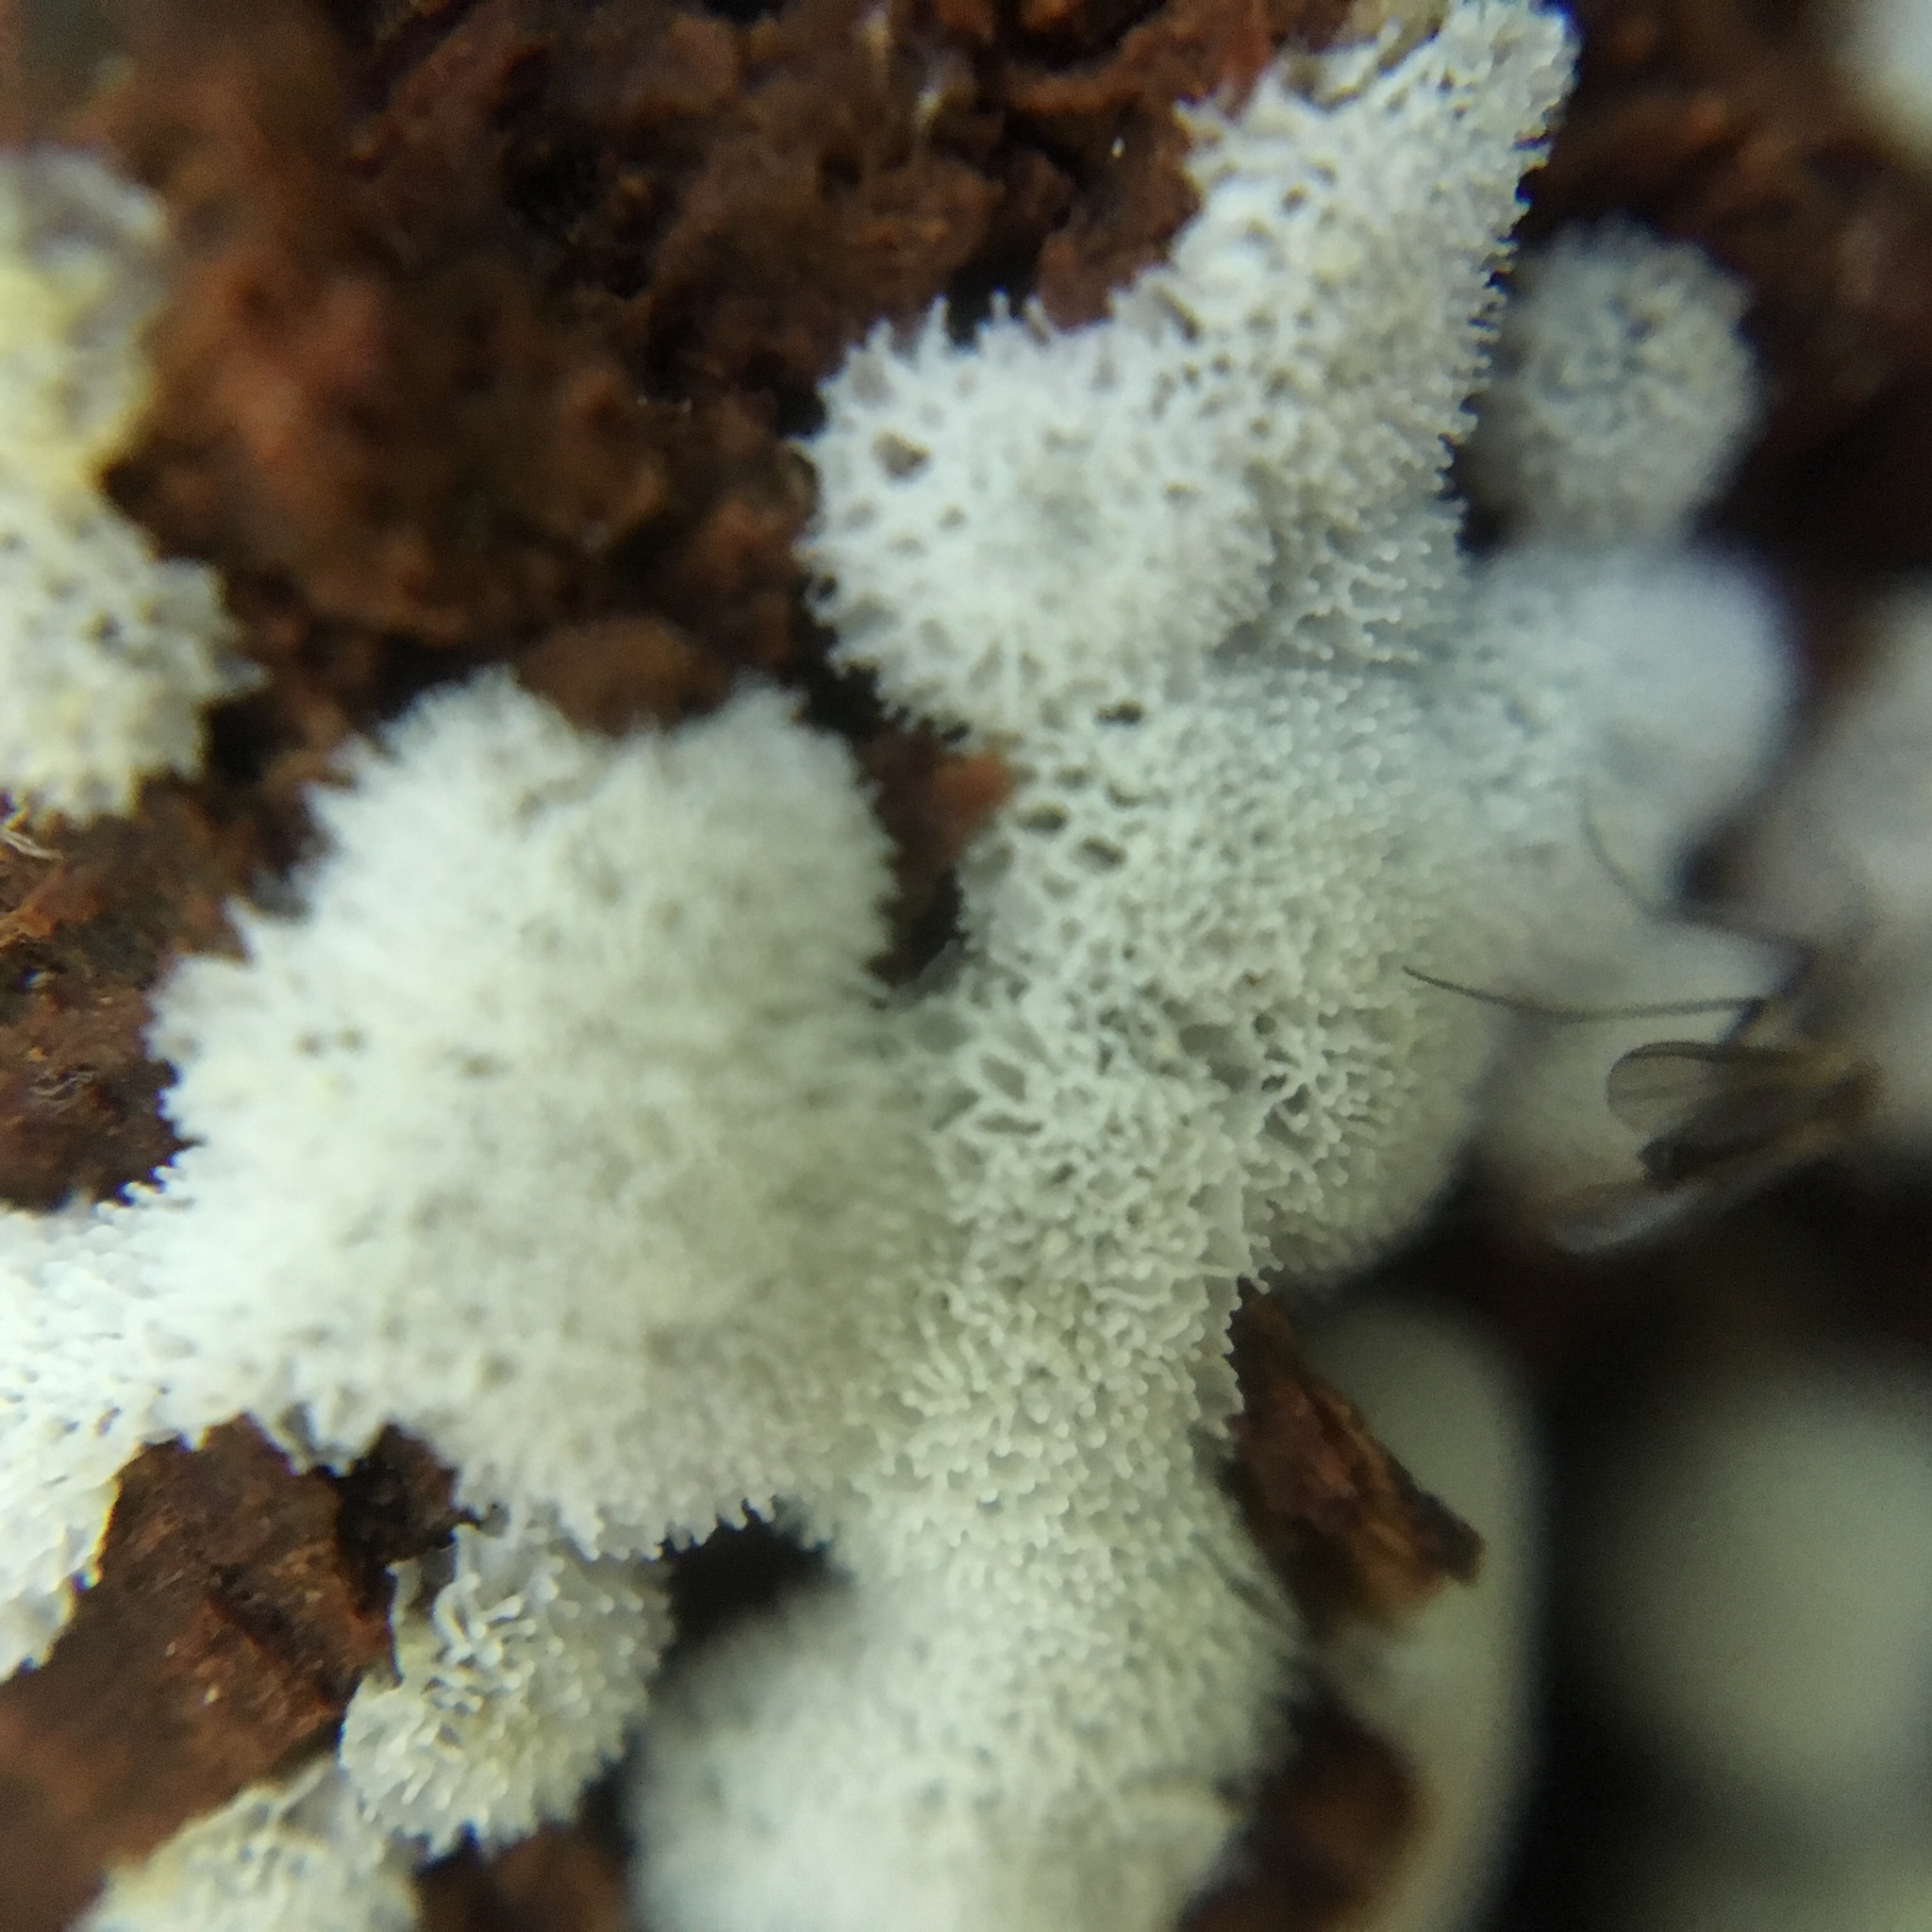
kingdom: Protozoa
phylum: Mycetozoa
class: Protosteliomycetes
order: Ceratiomyxales
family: Ceratiomyxaceae
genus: Ceratiomyxa
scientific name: Ceratiomyxa fruticulosa
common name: Honeycomb coral slime mold
